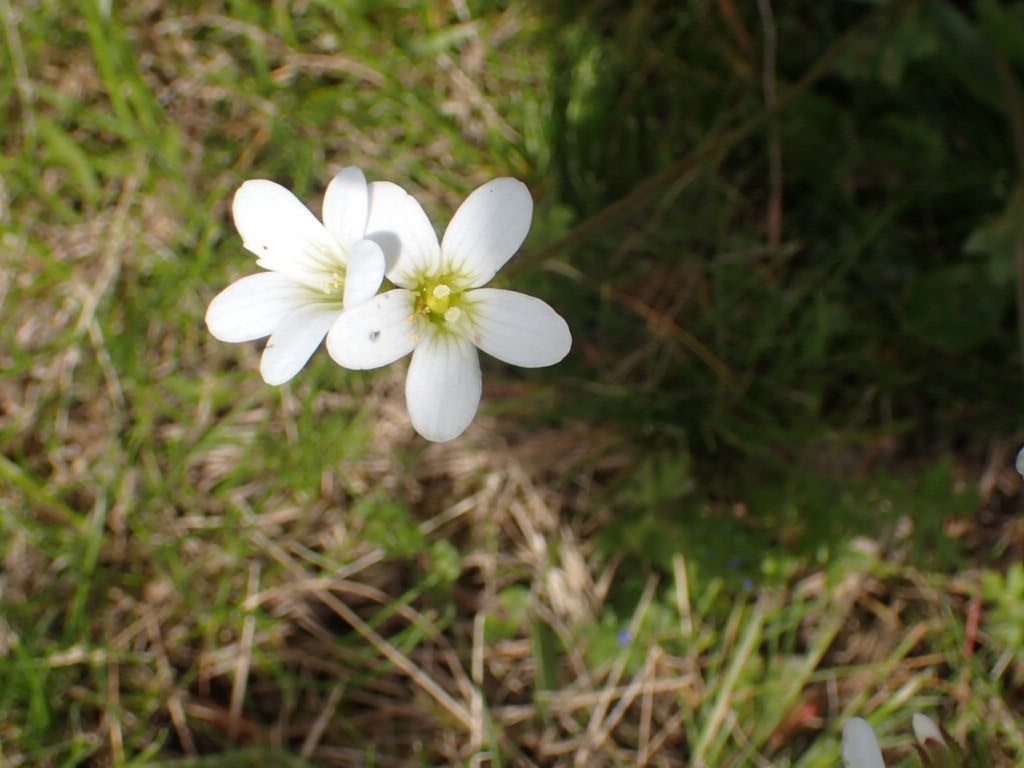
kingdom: Plantae
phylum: Tracheophyta
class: Magnoliopsida
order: Saxifragales
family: Saxifragaceae
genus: Saxifraga
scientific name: Saxifraga granulata
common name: Meadow saxifrage
